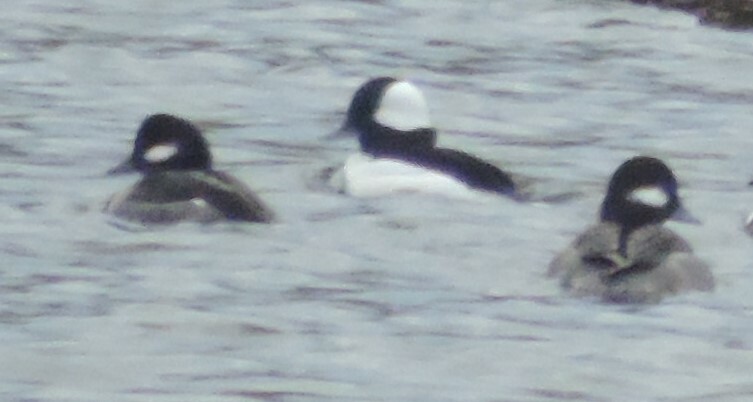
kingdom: Animalia
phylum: Chordata
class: Aves
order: Anseriformes
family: Anatidae
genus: Bucephala
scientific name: Bucephala albeola
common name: Bufflehead
